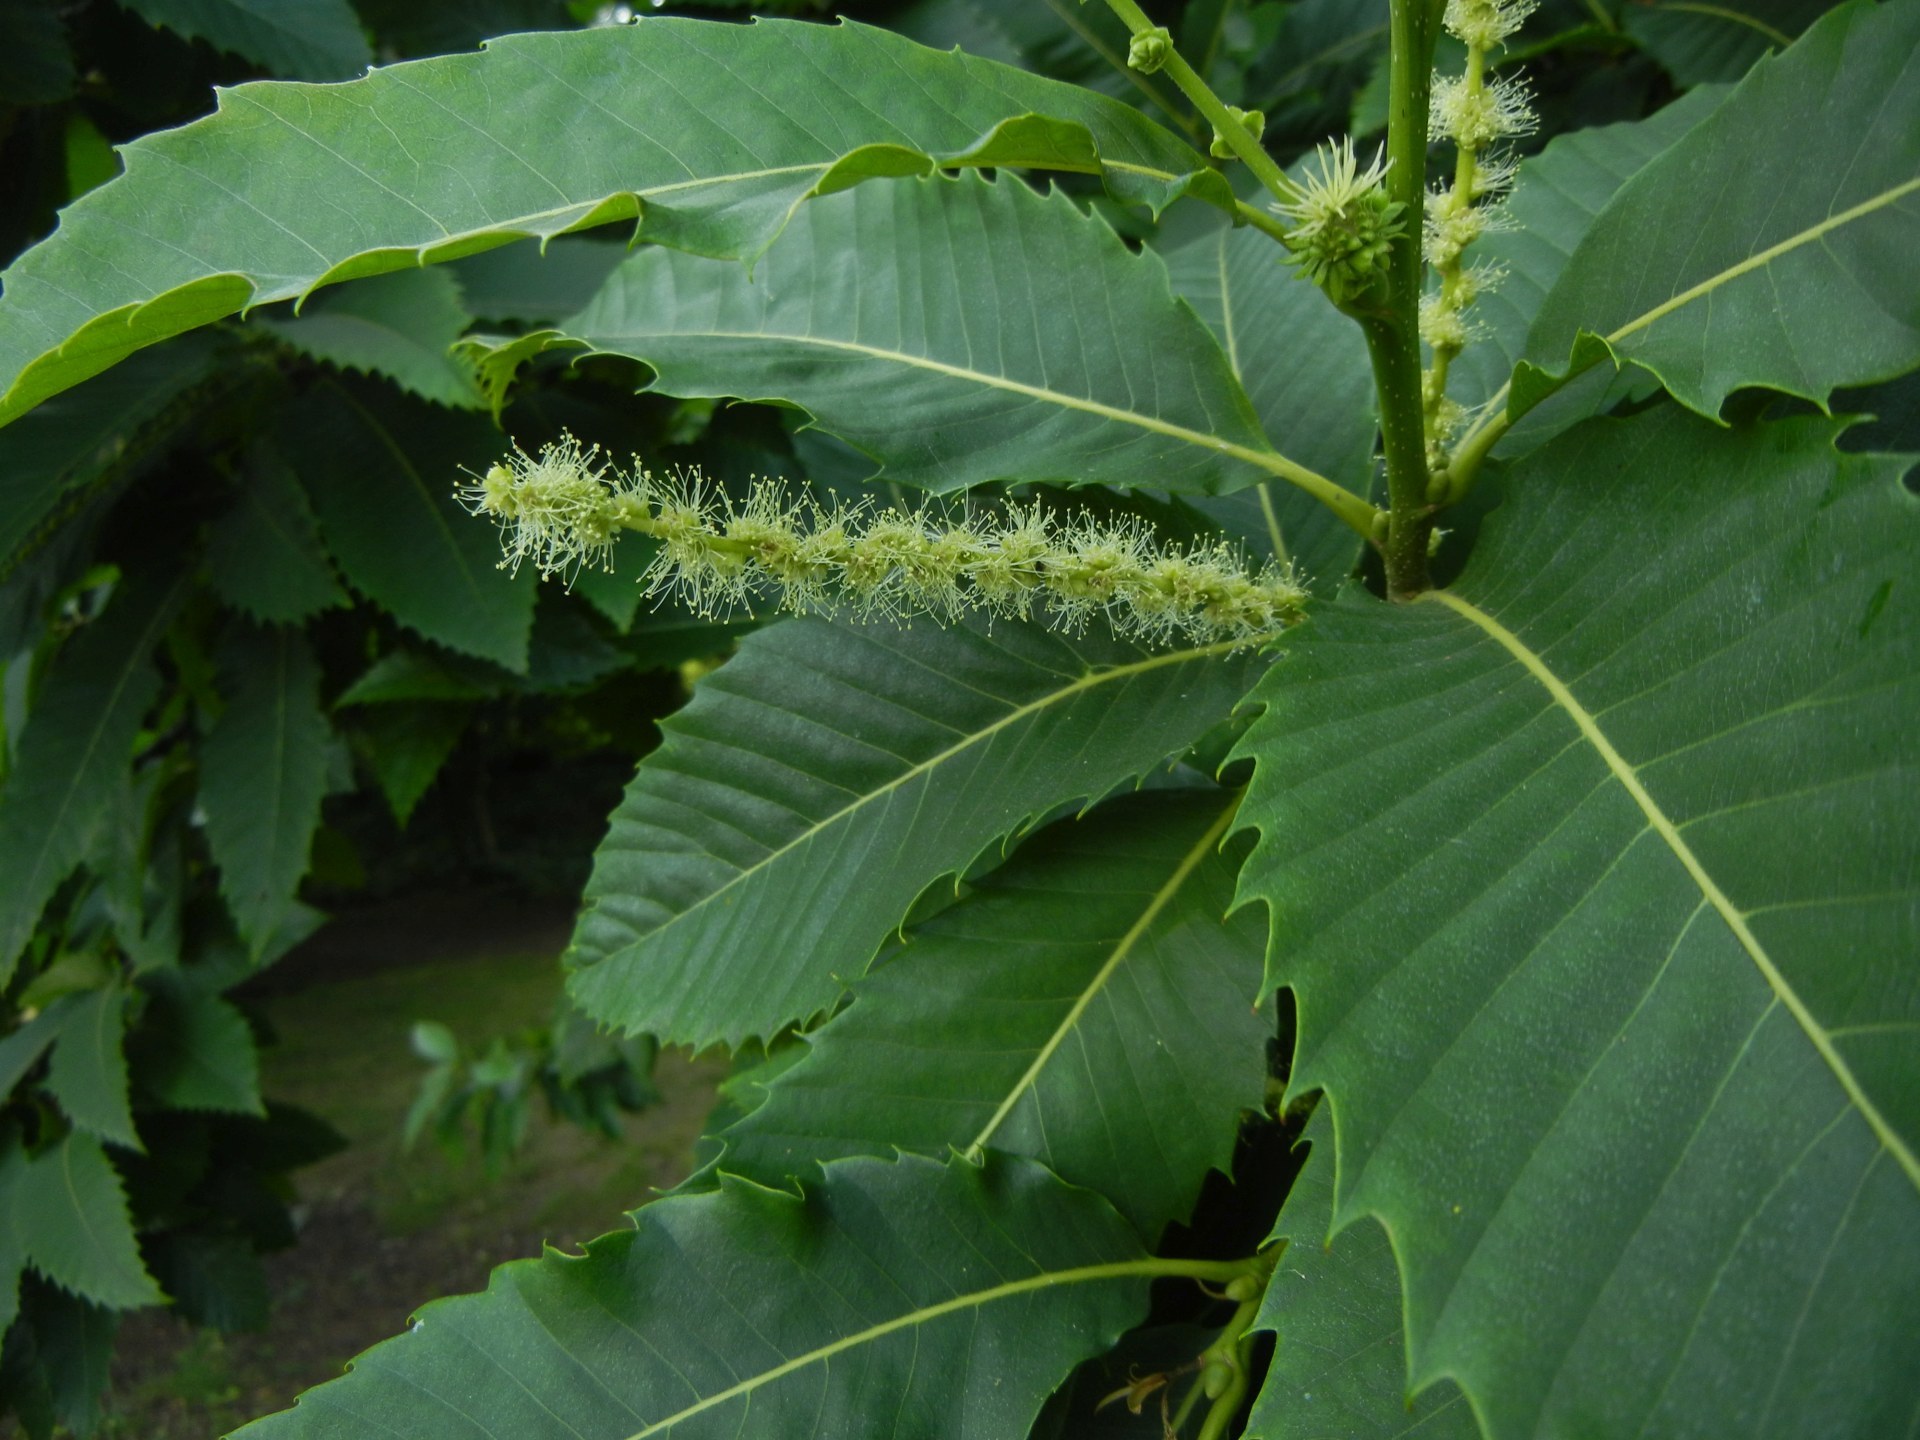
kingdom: Plantae
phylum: Tracheophyta
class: Magnoliopsida
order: Fagales
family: Fagaceae
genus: Castanea
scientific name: Castanea sativa
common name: Sweet chestnut
